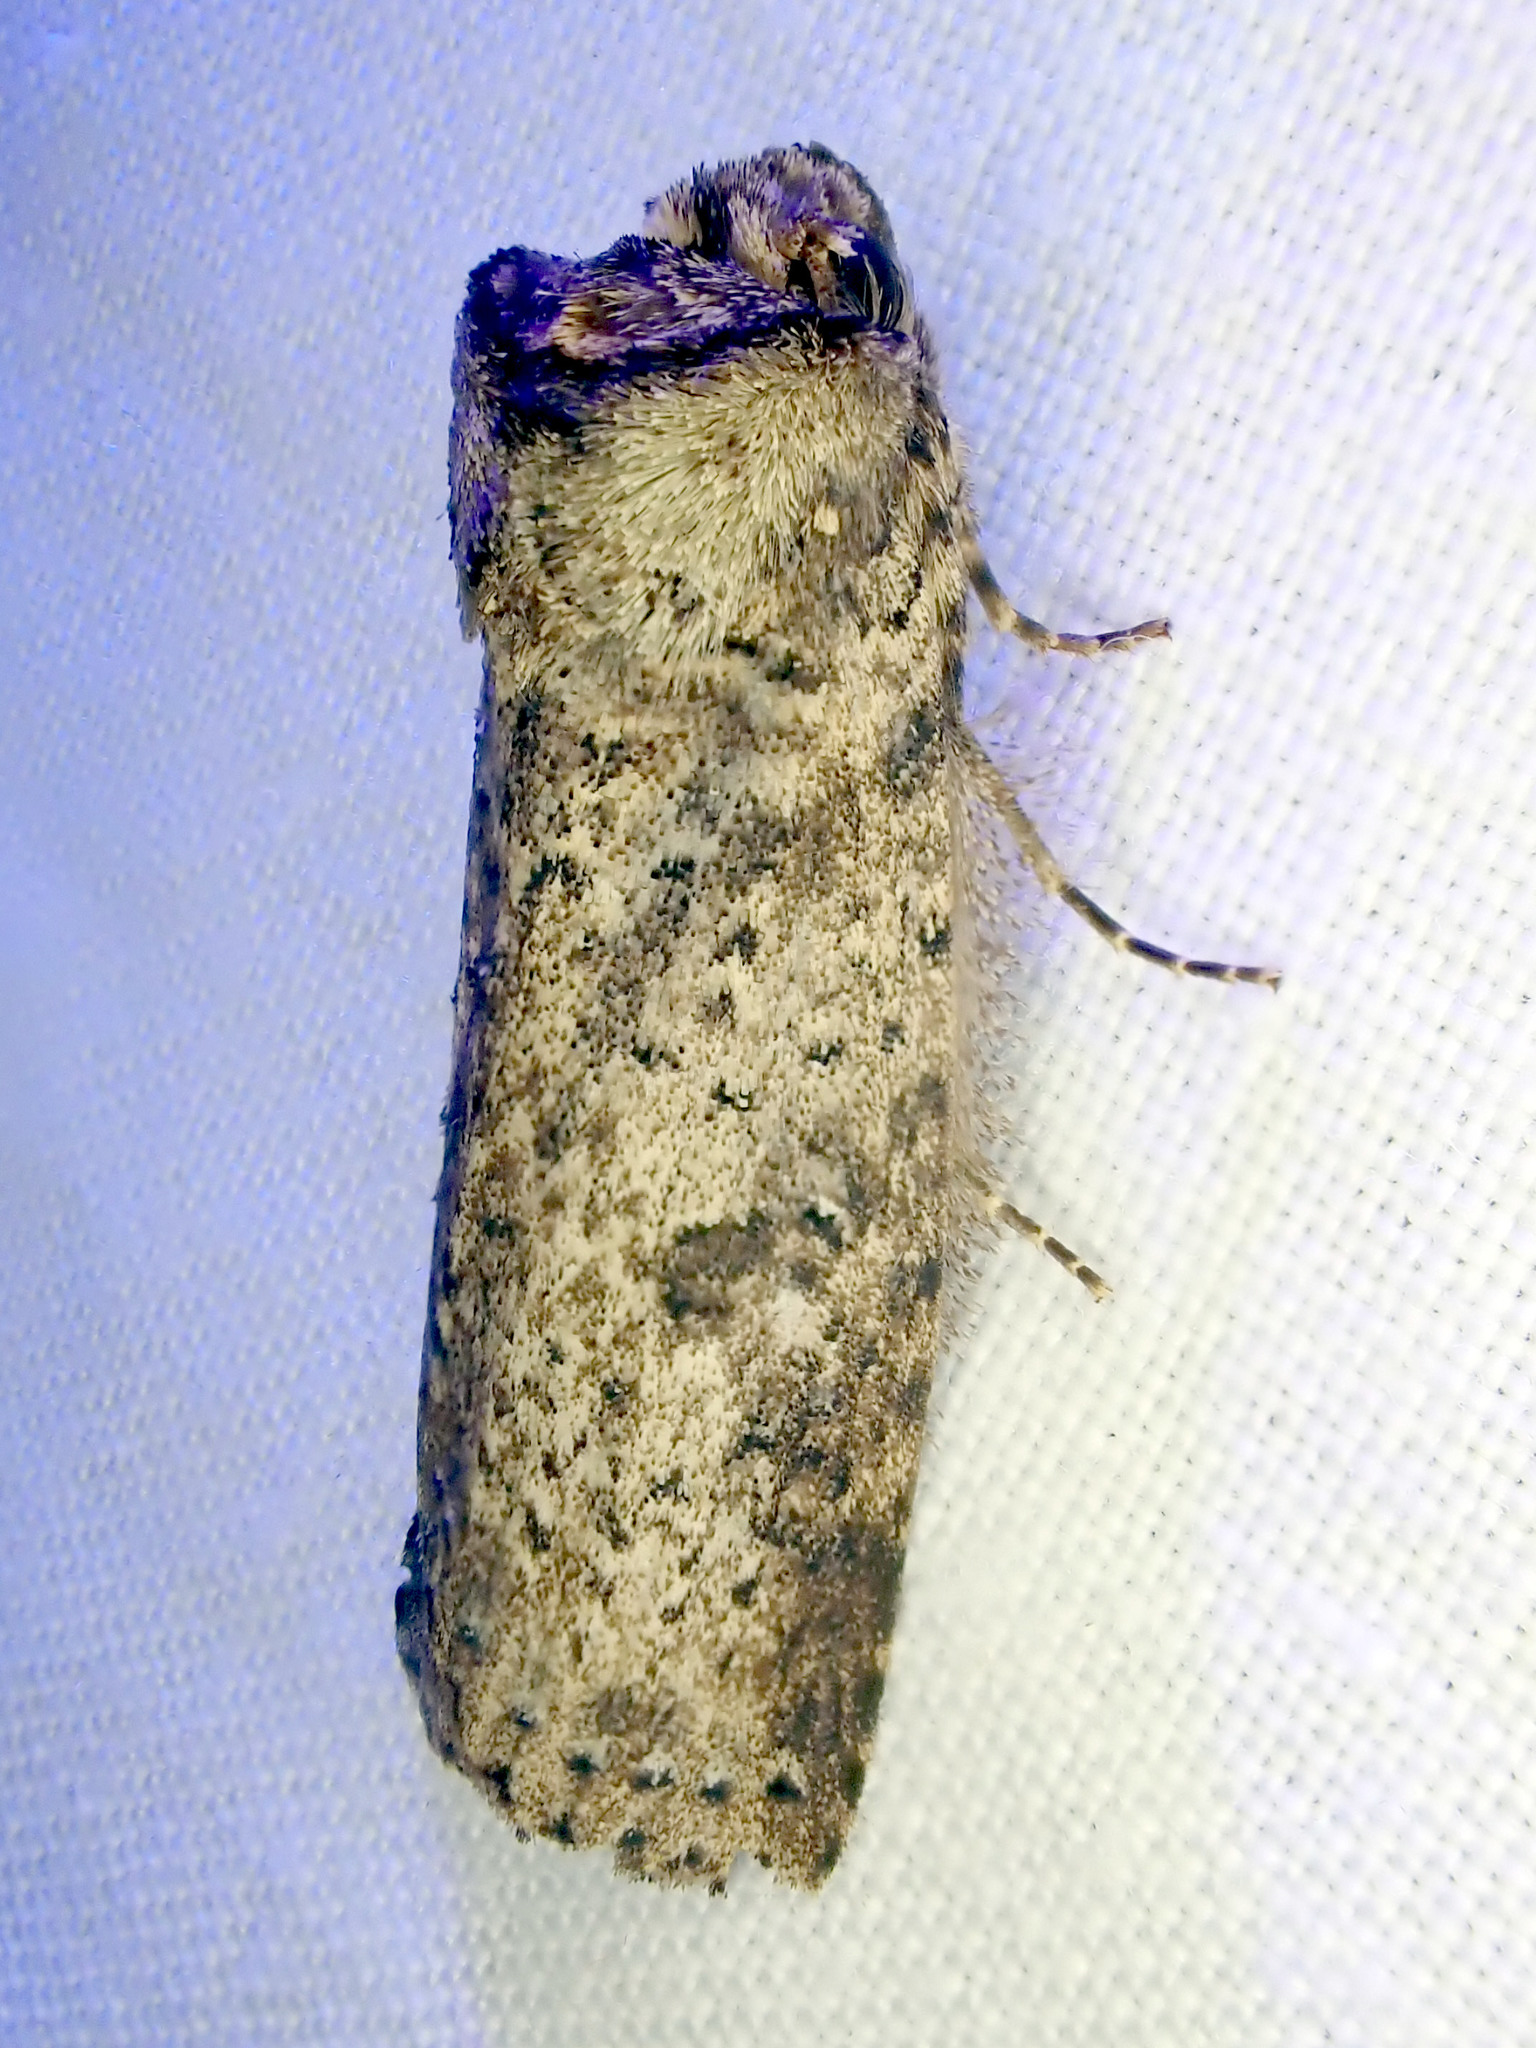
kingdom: Animalia
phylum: Arthropoda
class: Insecta
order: Lepidoptera
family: Notodontidae
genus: Gargettiana
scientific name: Gargettiana punctatissima
